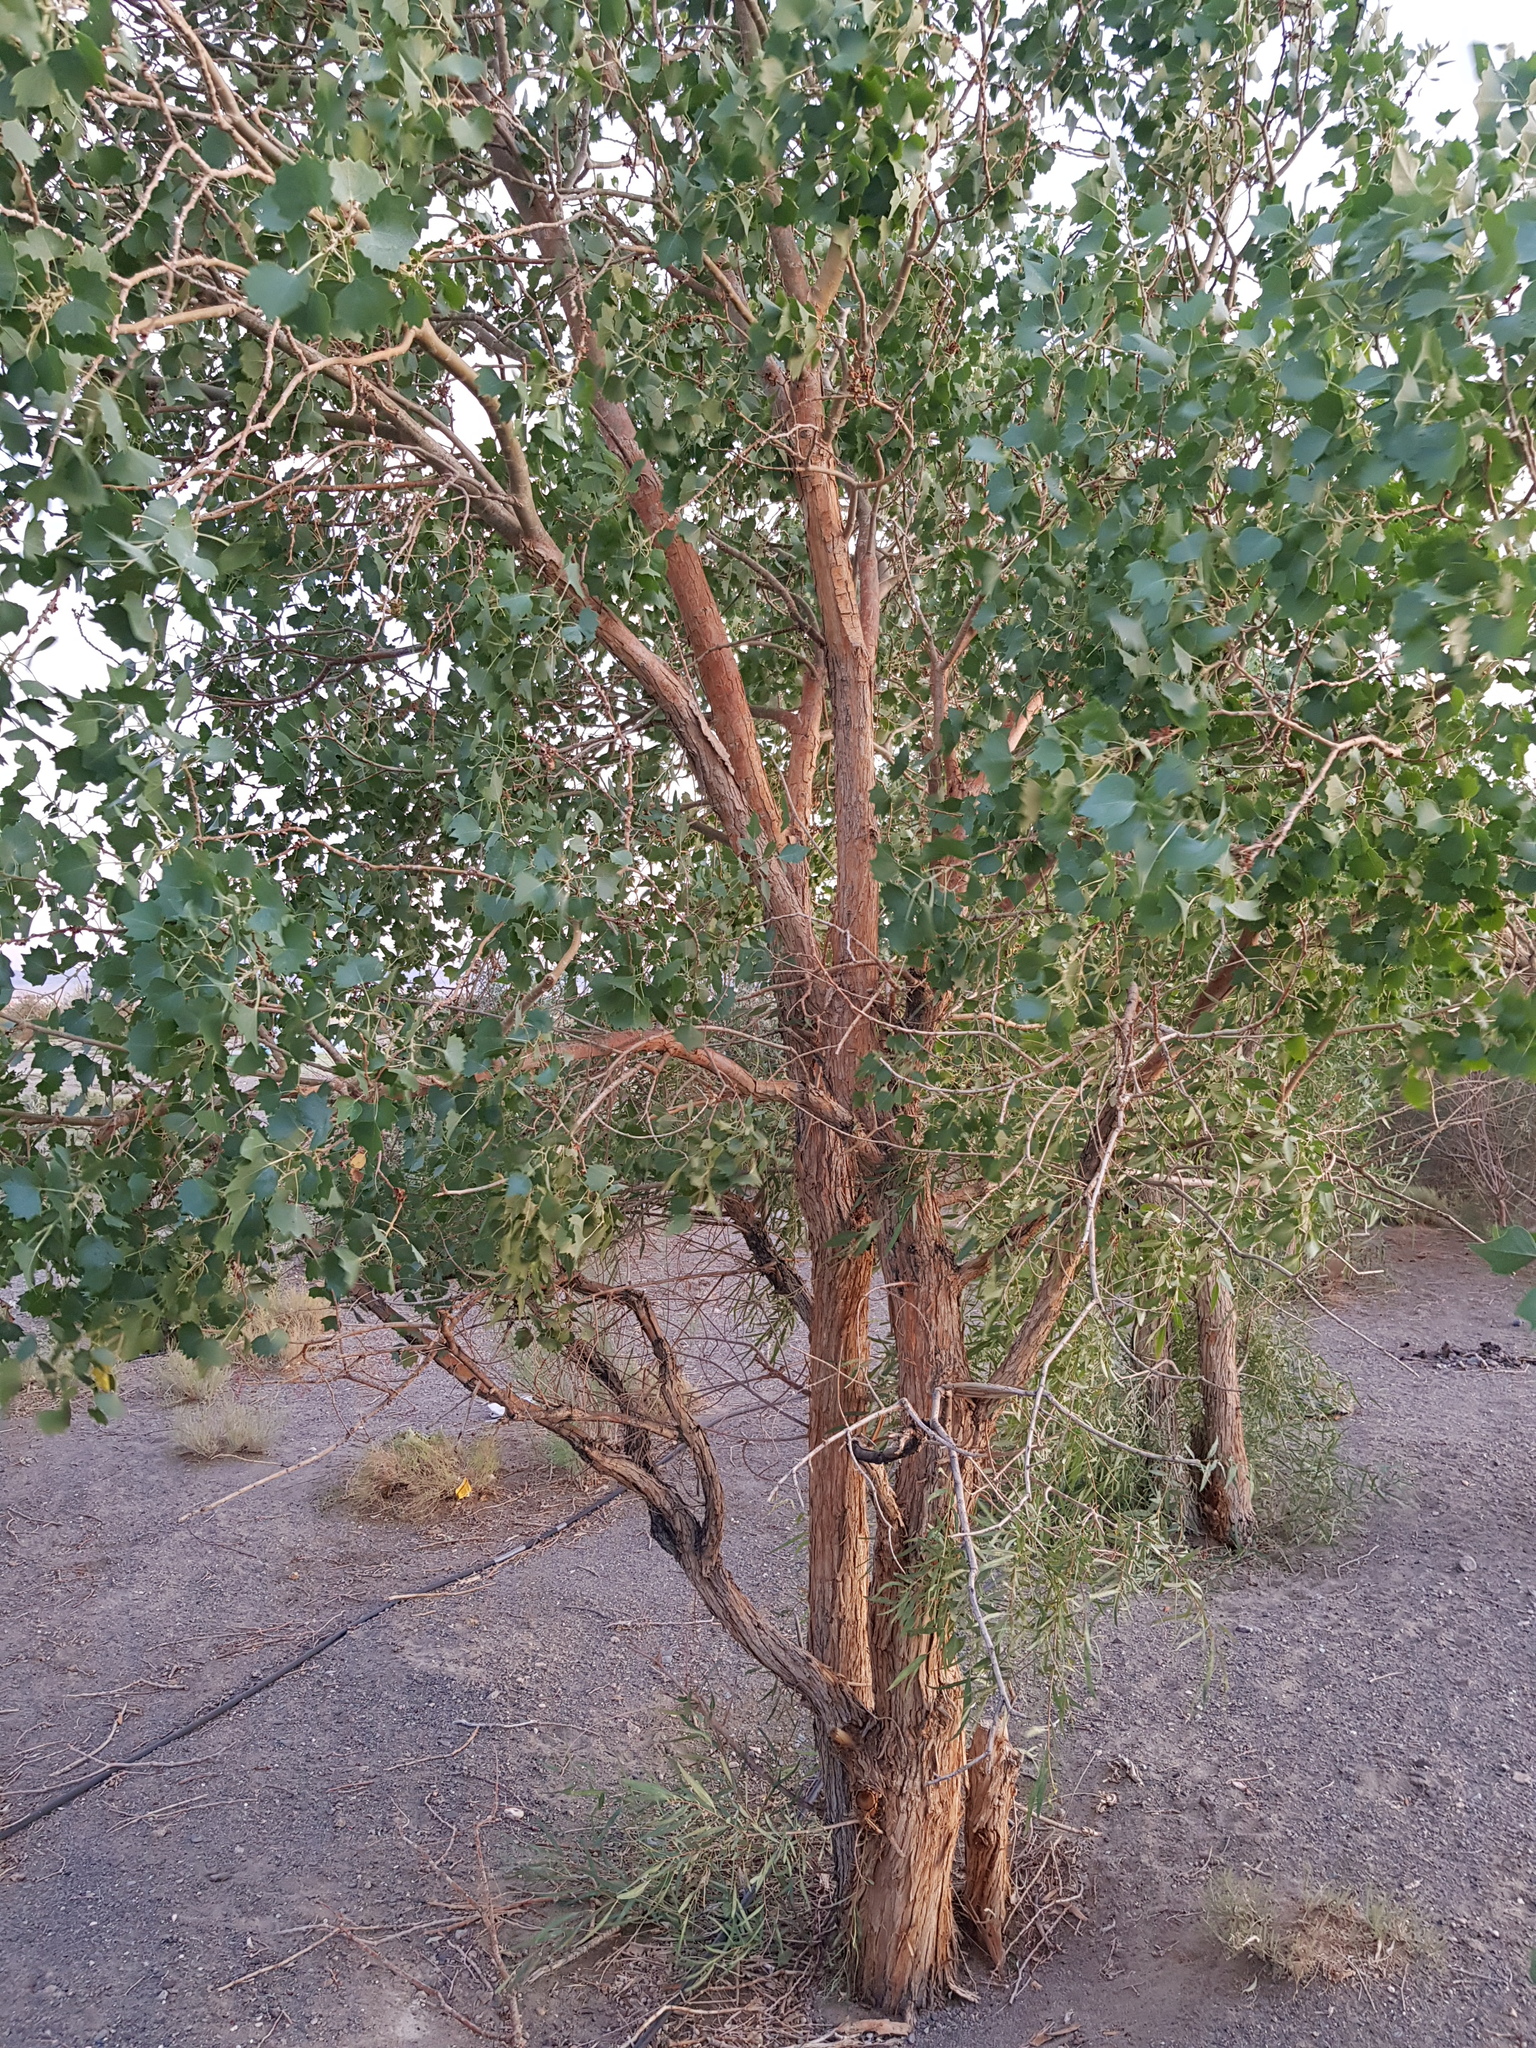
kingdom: Plantae
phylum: Tracheophyta
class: Magnoliopsida
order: Malpighiales
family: Salicaceae
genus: Populus
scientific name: Populus euphratica
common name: Euphrates poplar
